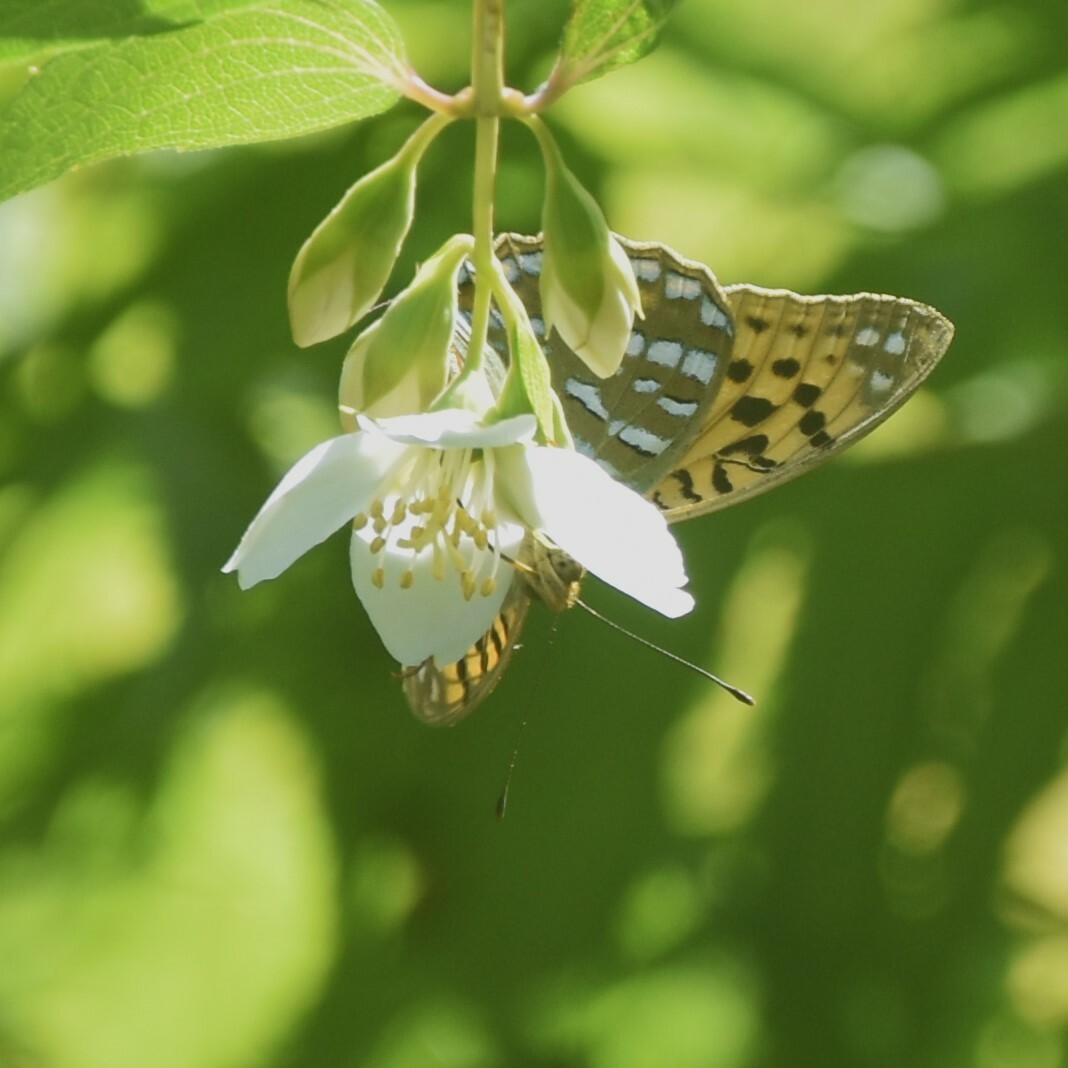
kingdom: Animalia
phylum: Arthropoda
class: Insecta
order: Lepidoptera
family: Nymphalidae
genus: Fabriciana
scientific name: Fabriciana kamala
